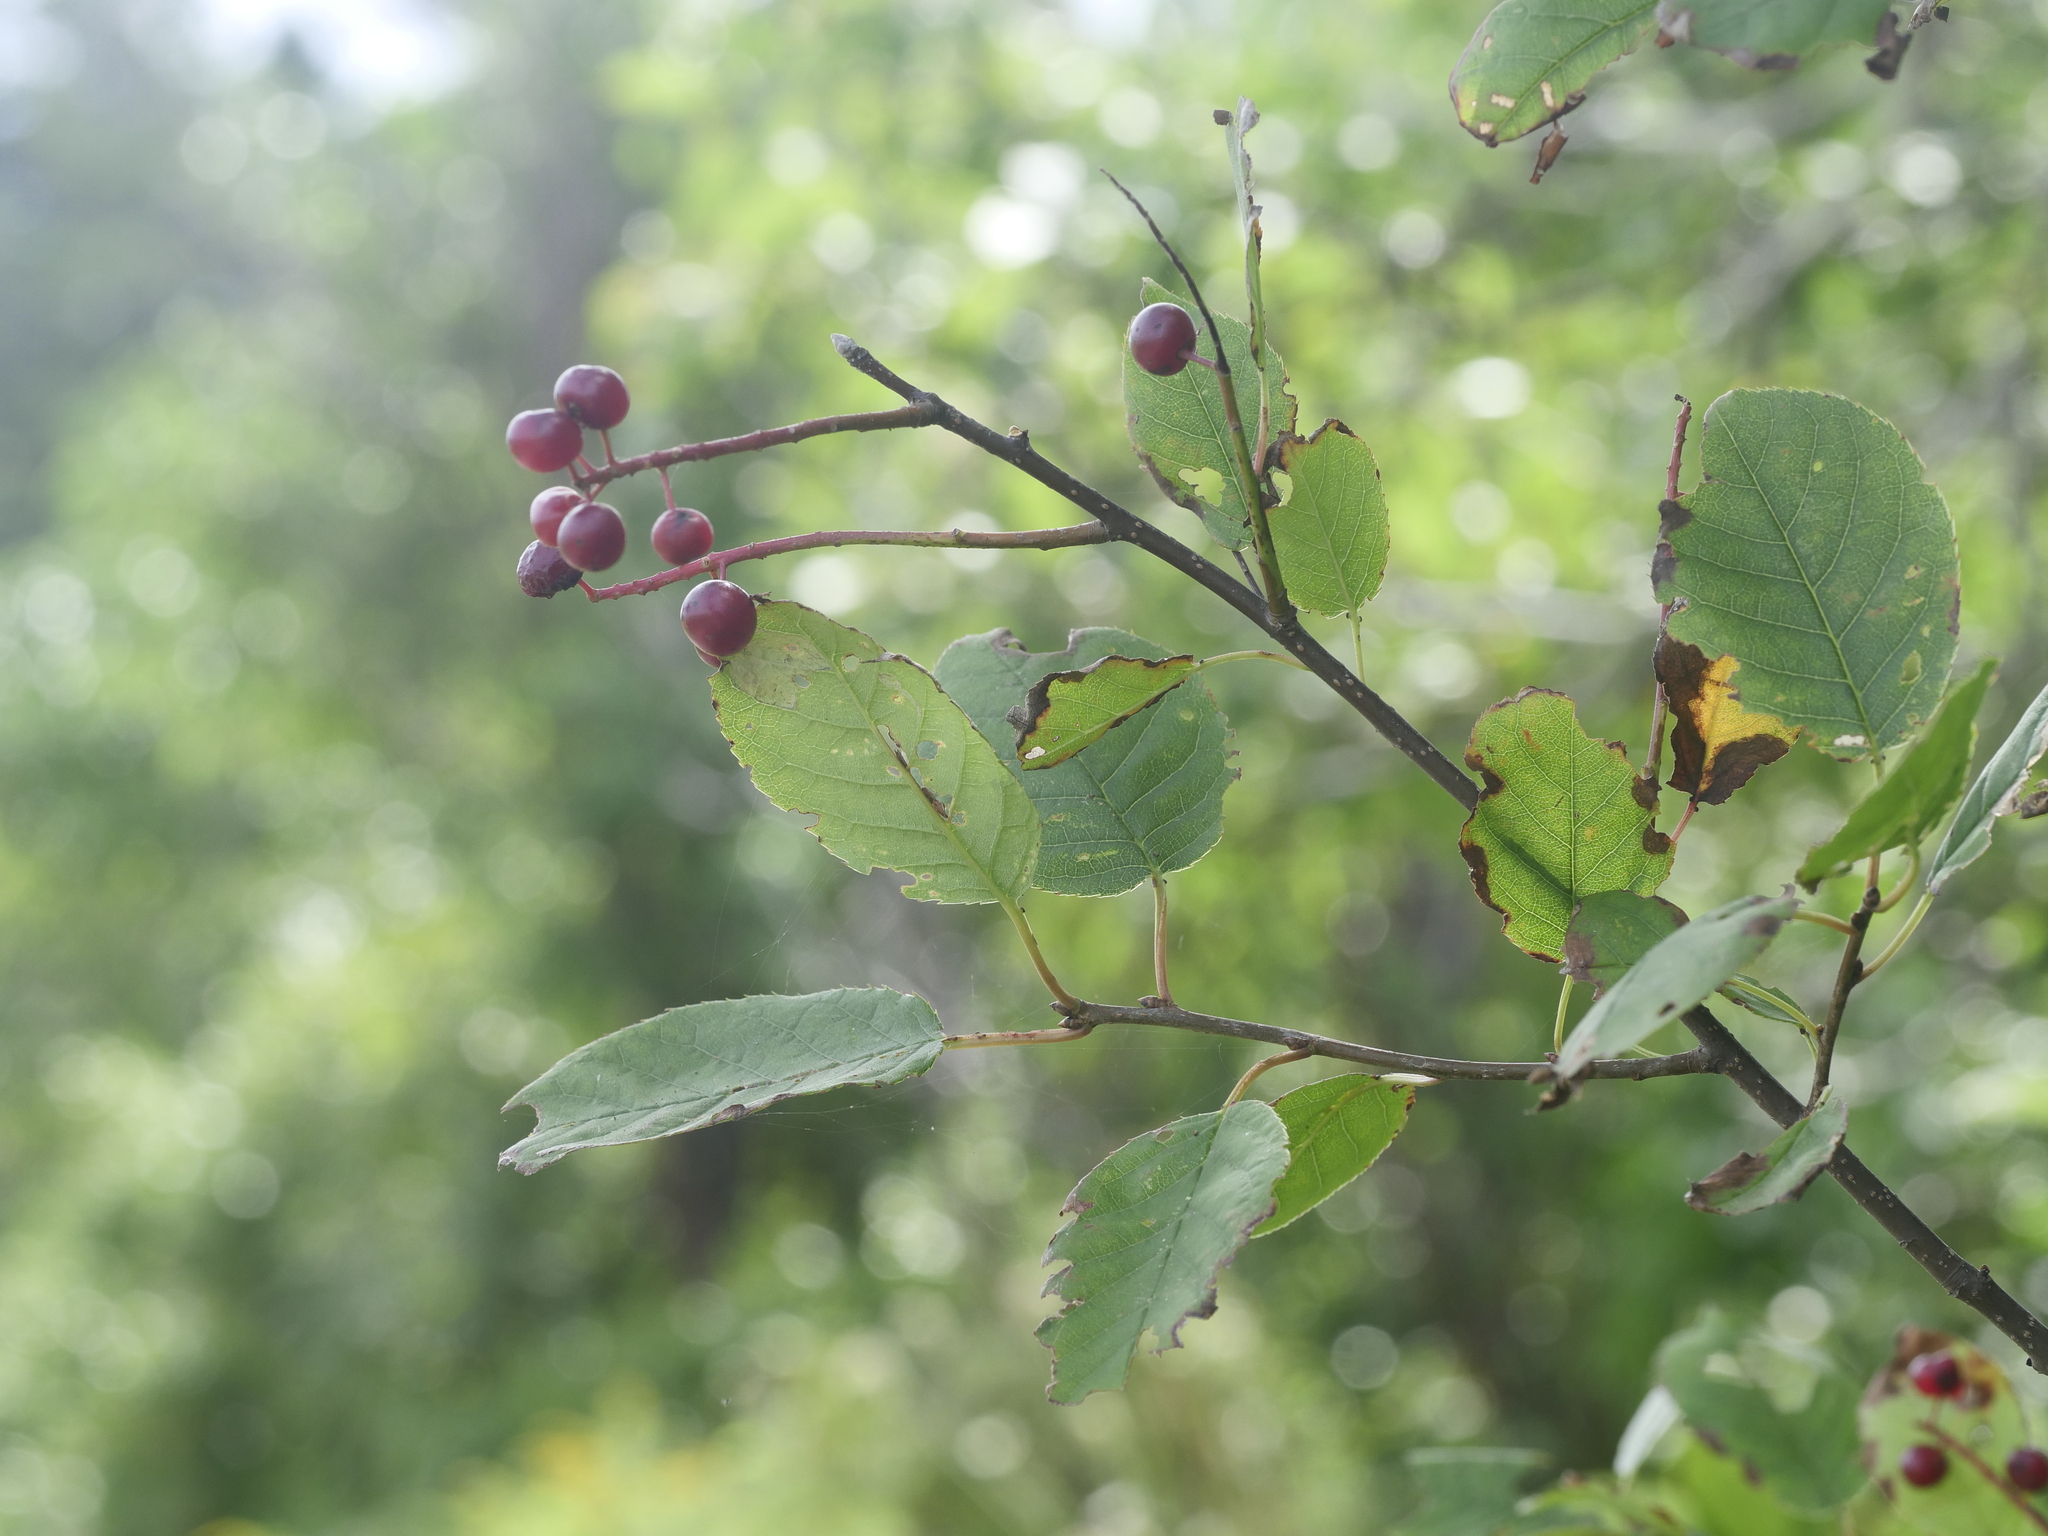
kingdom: Plantae
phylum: Tracheophyta
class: Magnoliopsida
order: Rosales
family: Rosaceae
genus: Prunus
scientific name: Prunus virginiana
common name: Chokecherry
